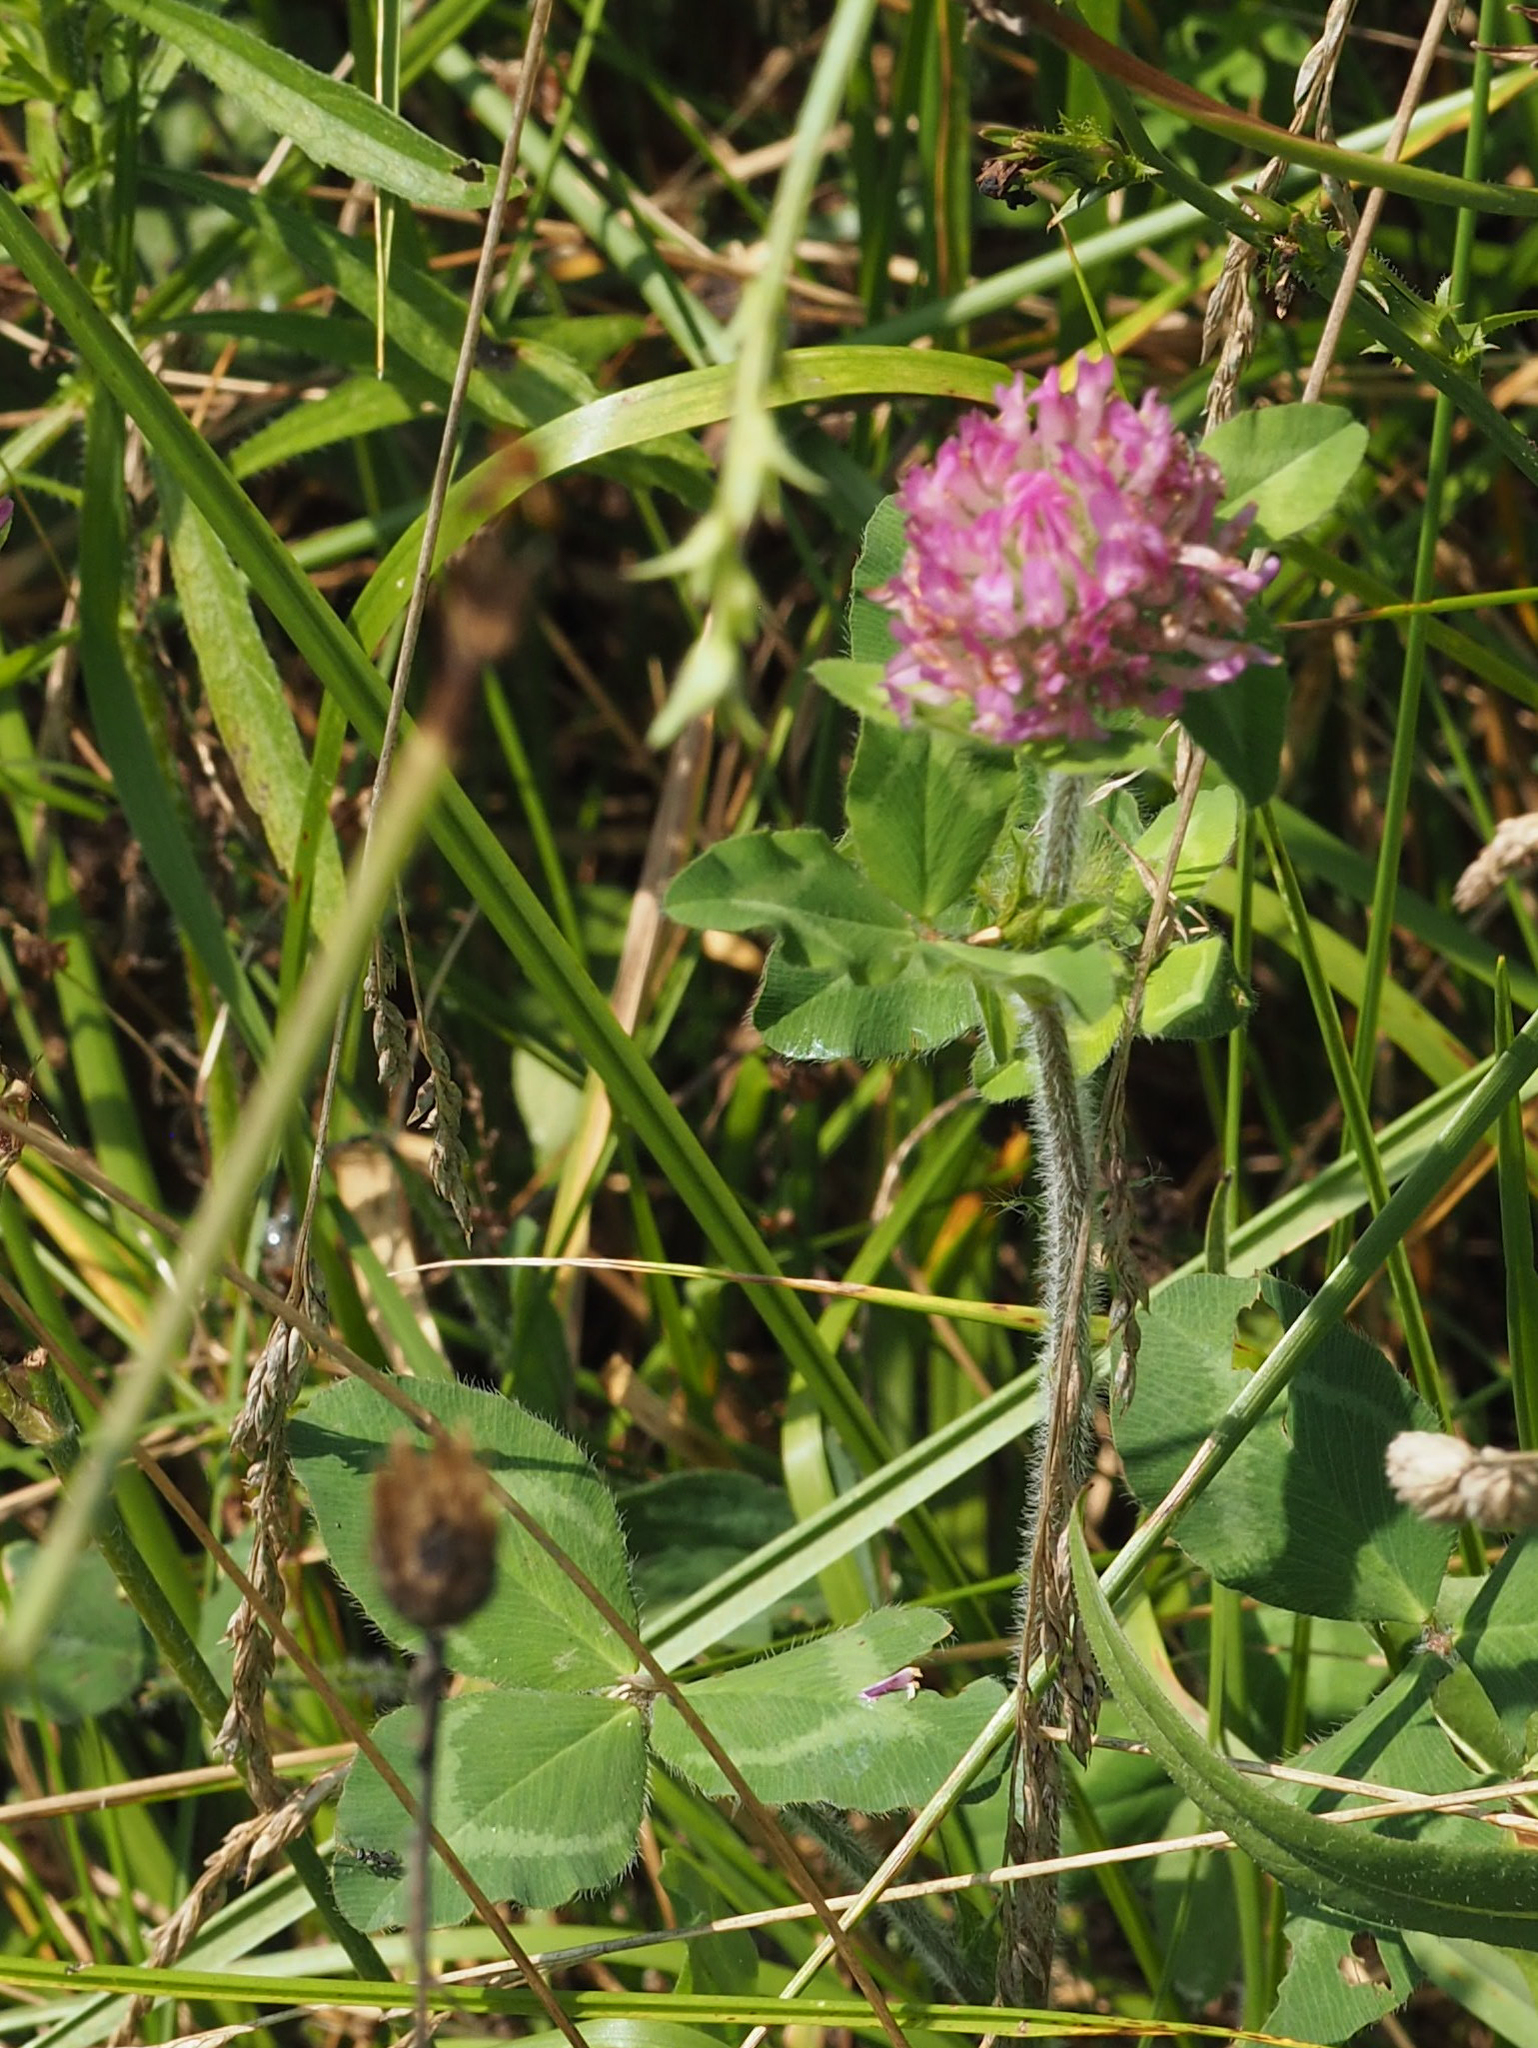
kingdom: Plantae
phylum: Tracheophyta
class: Magnoliopsida
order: Fabales
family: Fabaceae
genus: Trifolium
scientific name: Trifolium pratense
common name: Red clover
